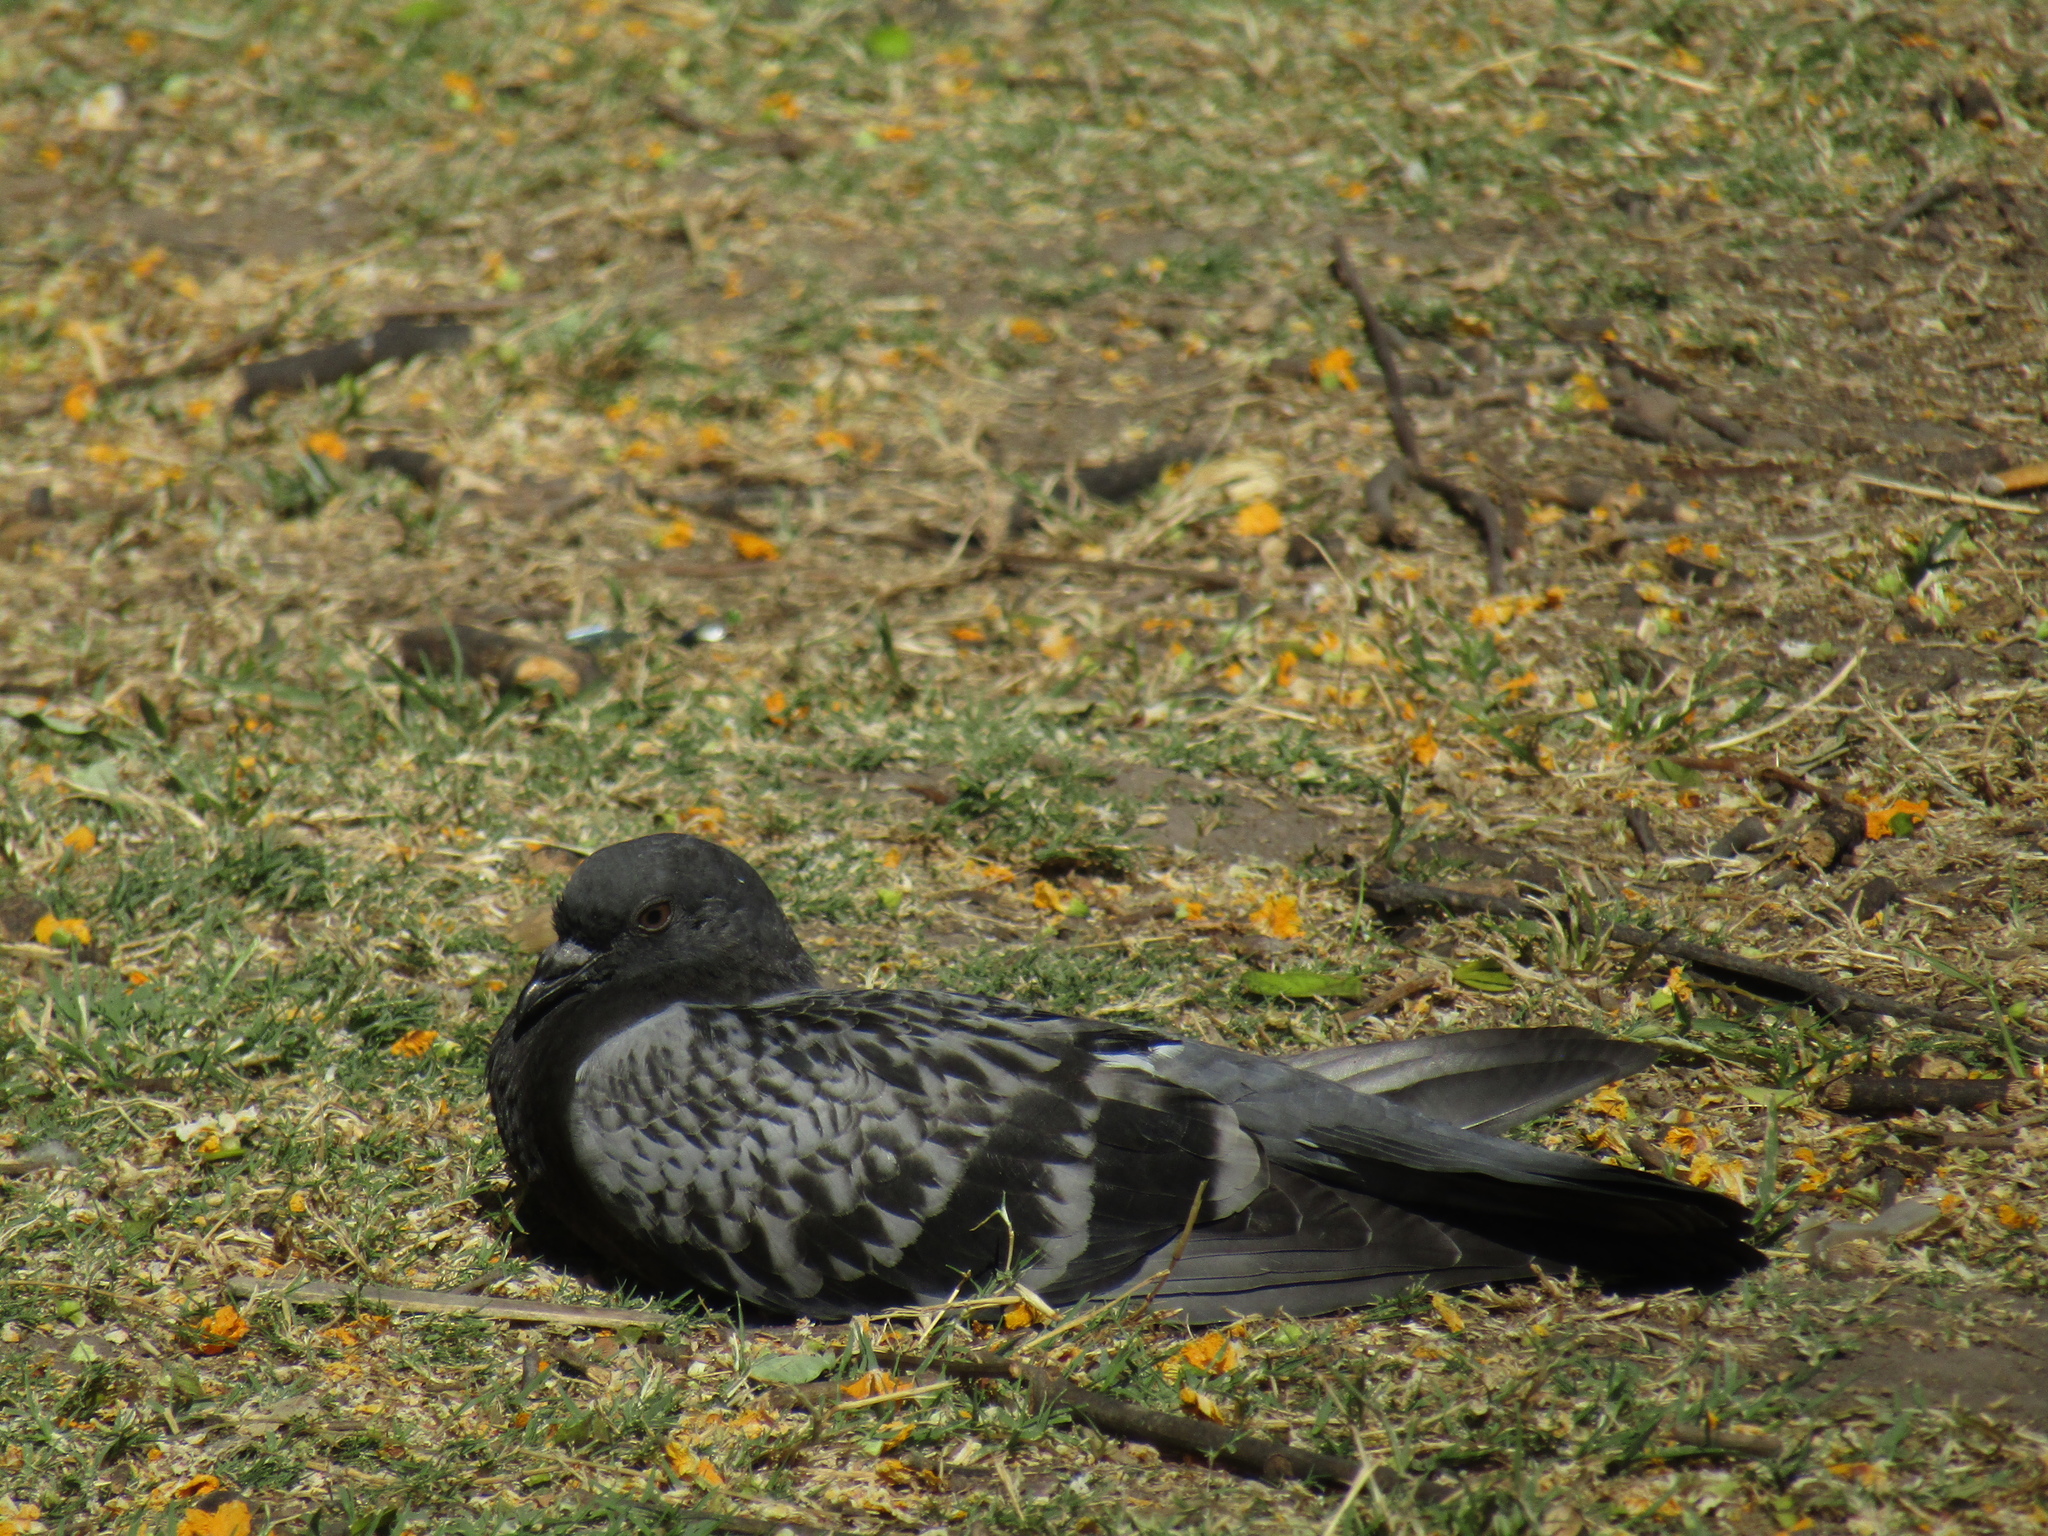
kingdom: Animalia
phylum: Chordata
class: Aves
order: Columbiformes
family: Columbidae
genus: Columba
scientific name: Columba livia
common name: Rock pigeon
